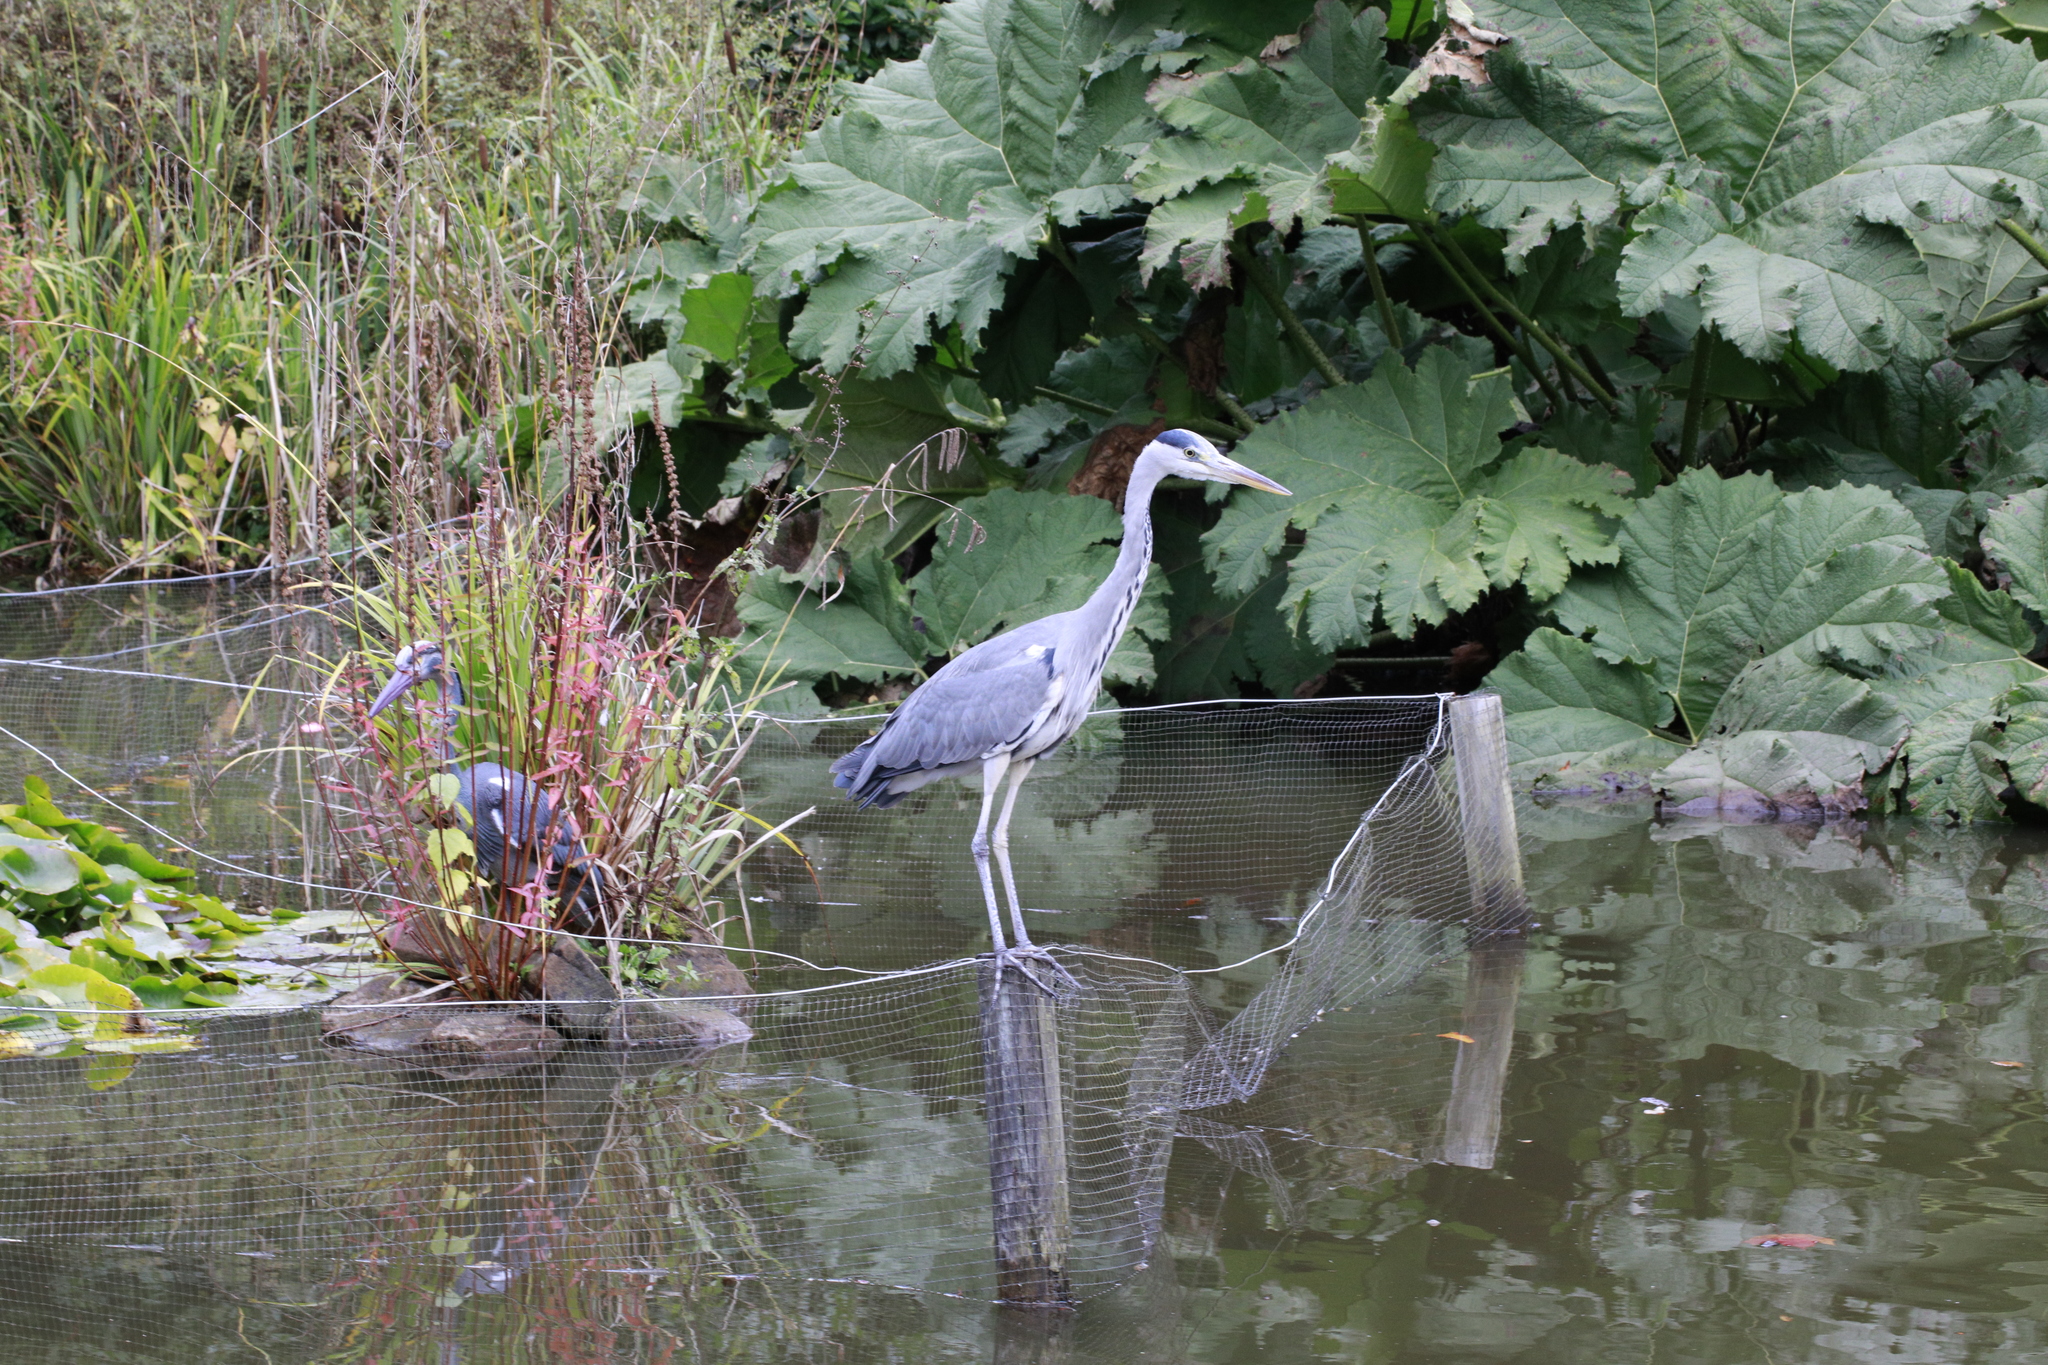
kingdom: Animalia
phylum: Chordata
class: Aves
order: Pelecaniformes
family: Ardeidae
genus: Ardea
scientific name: Ardea cinerea
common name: Grey heron
